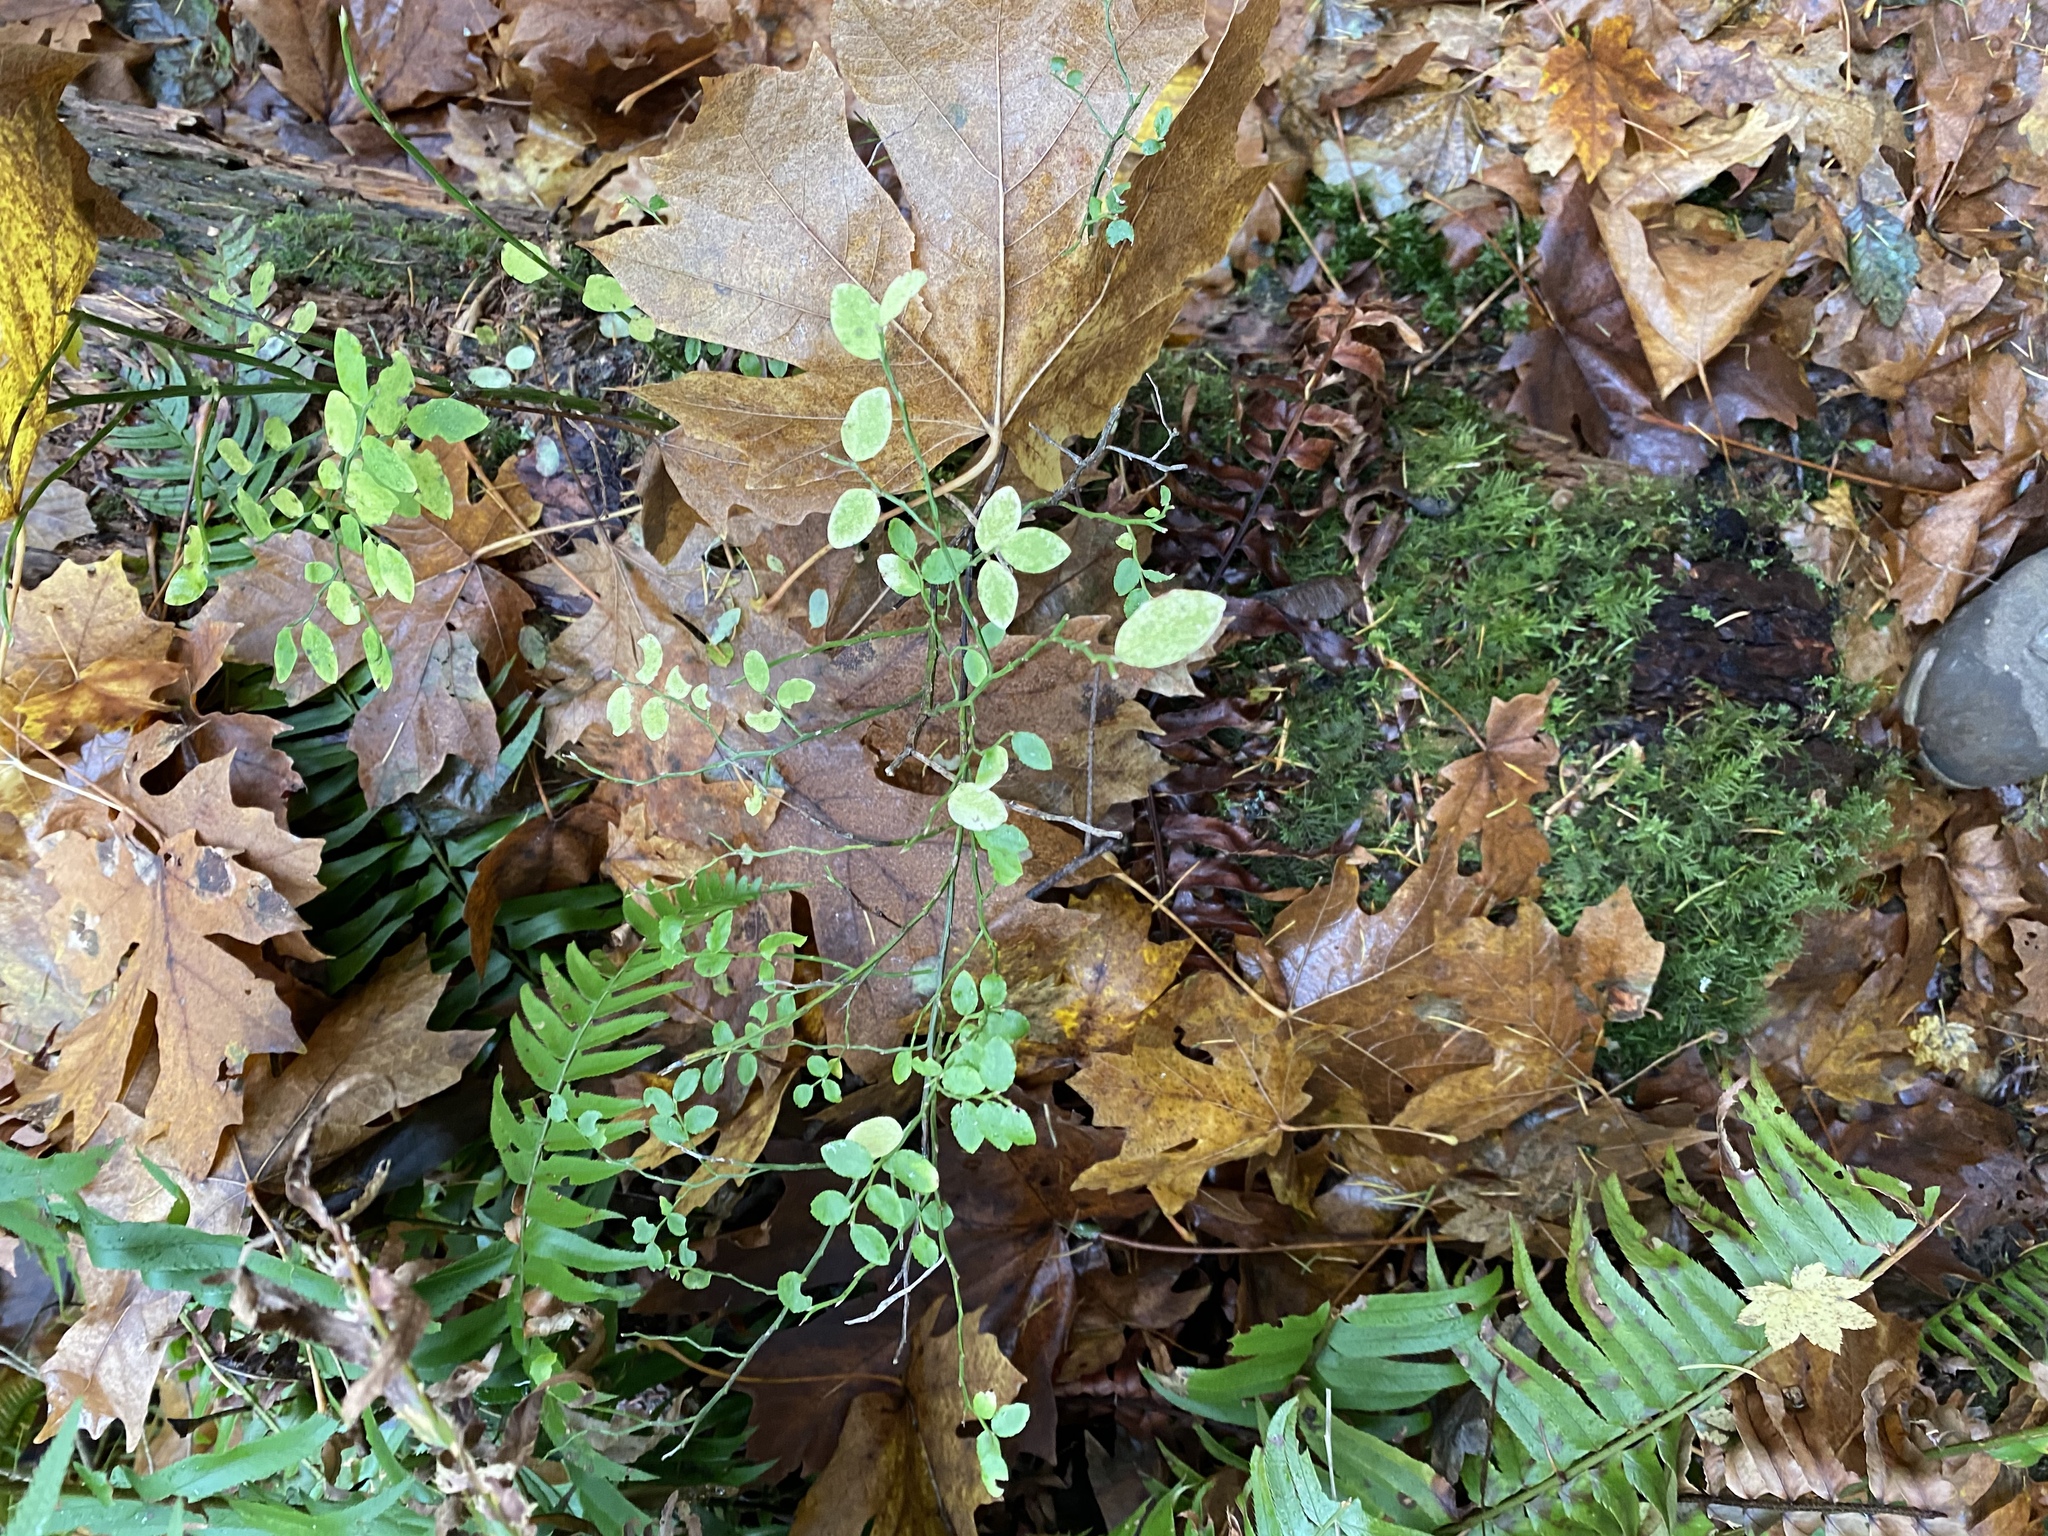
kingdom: Plantae
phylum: Tracheophyta
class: Magnoliopsida
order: Ericales
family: Ericaceae
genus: Vaccinium
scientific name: Vaccinium parvifolium
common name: Red-huckleberry
